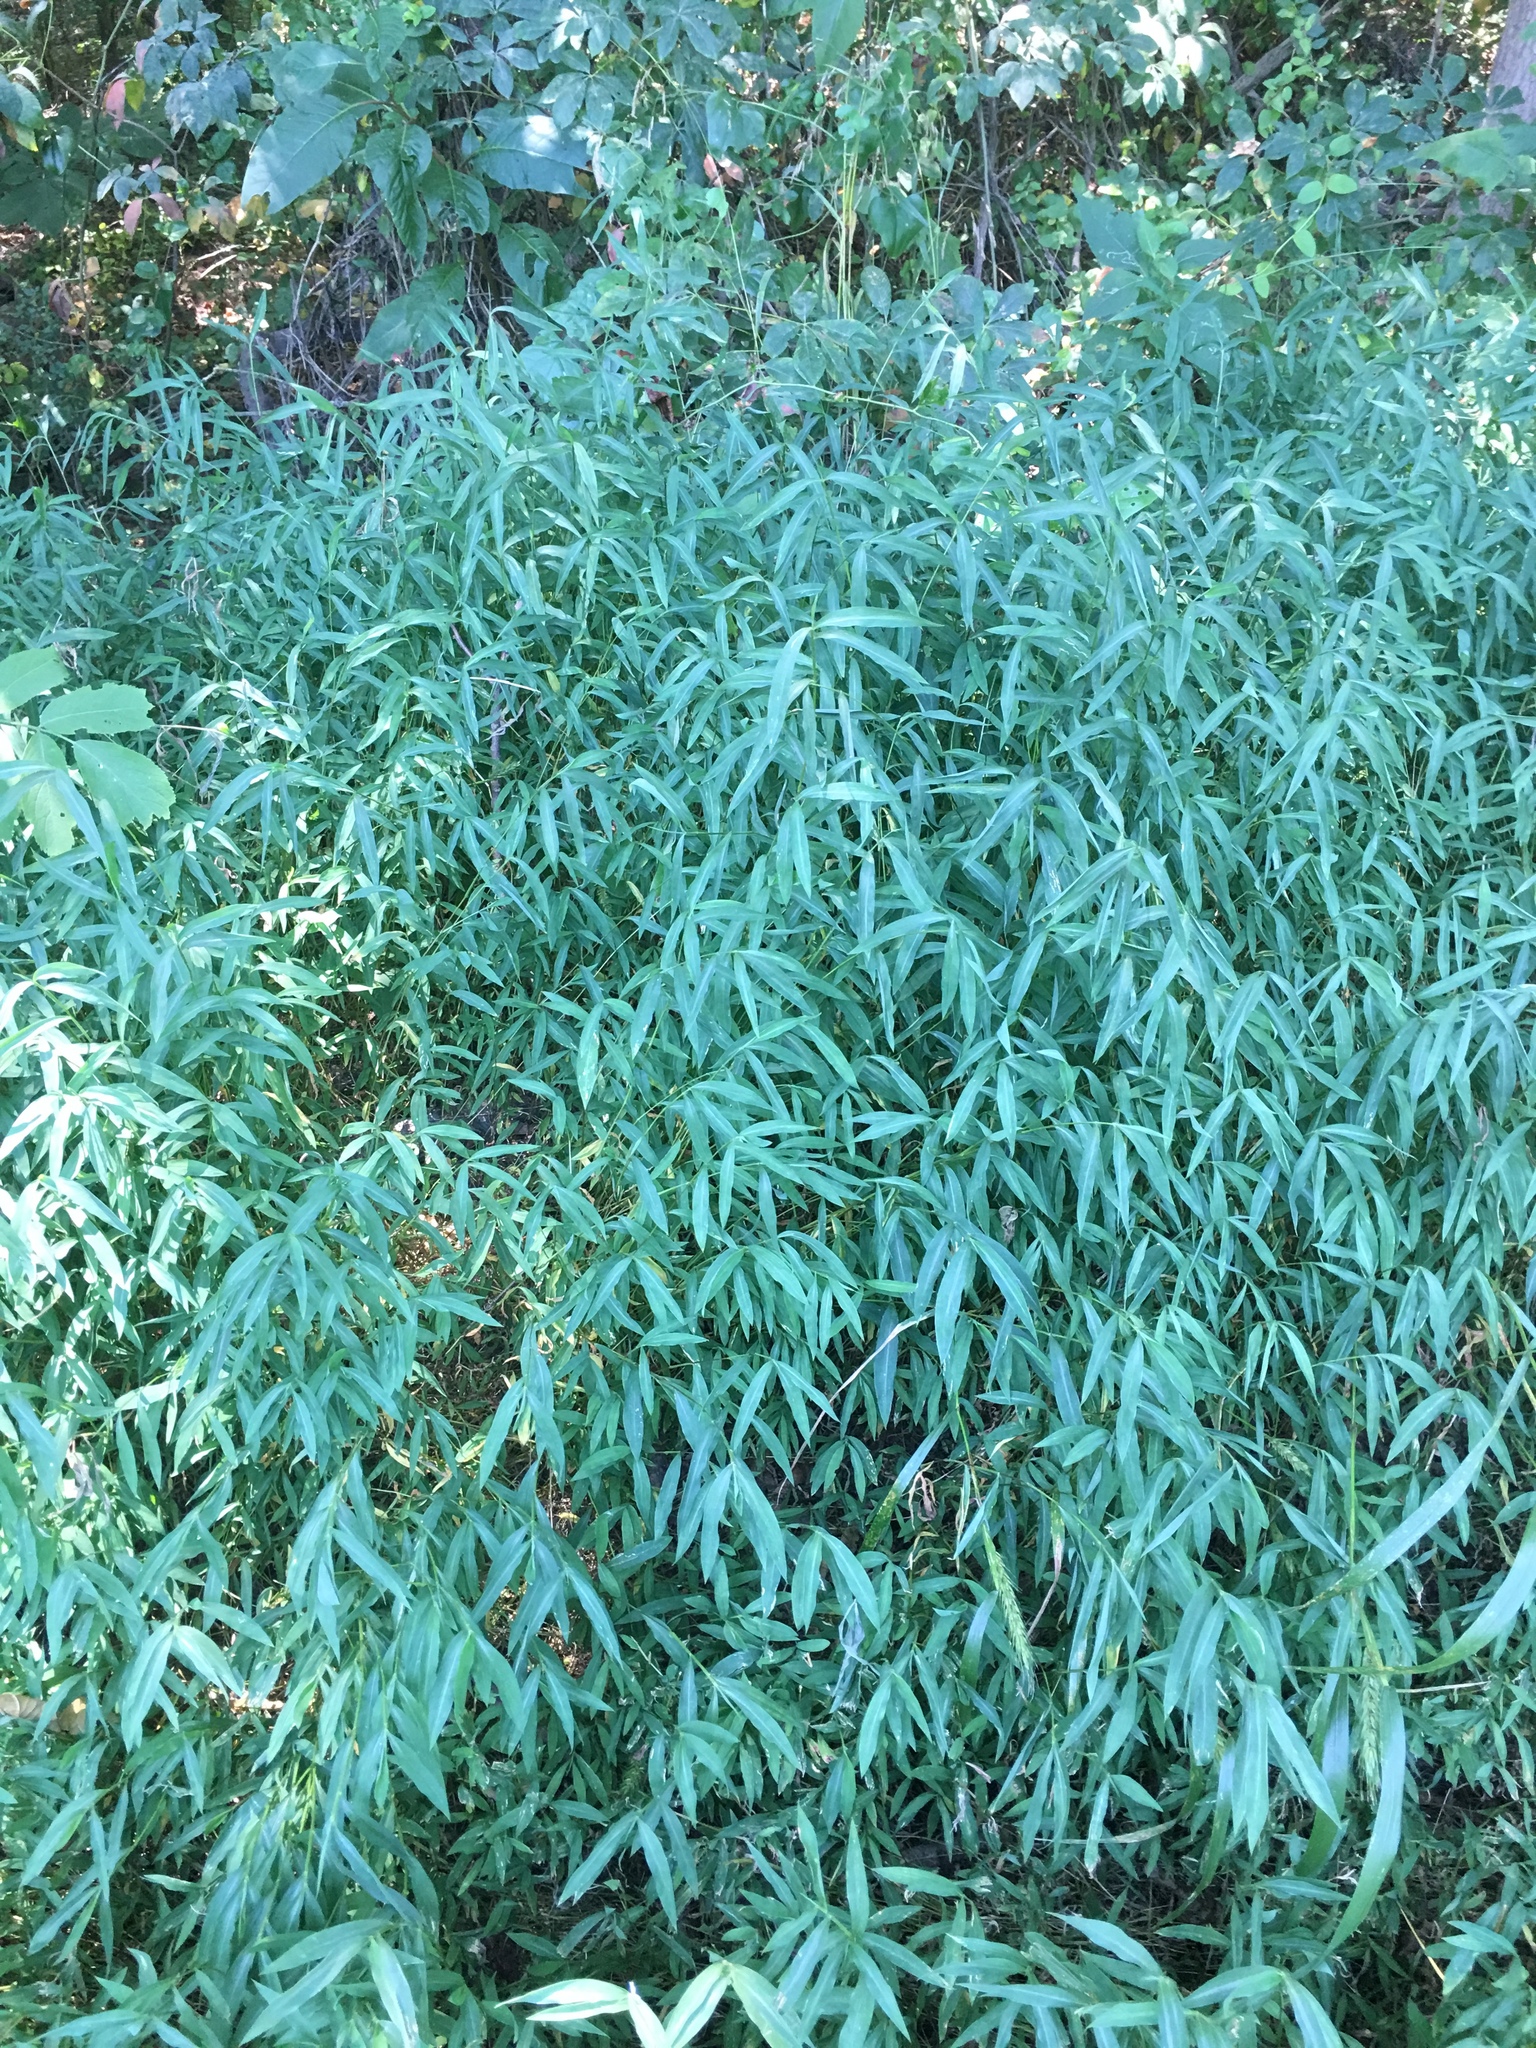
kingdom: Plantae
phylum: Tracheophyta
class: Liliopsida
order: Poales
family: Poaceae
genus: Microstegium
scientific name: Microstegium vimineum
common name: Japanese stiltgrass
